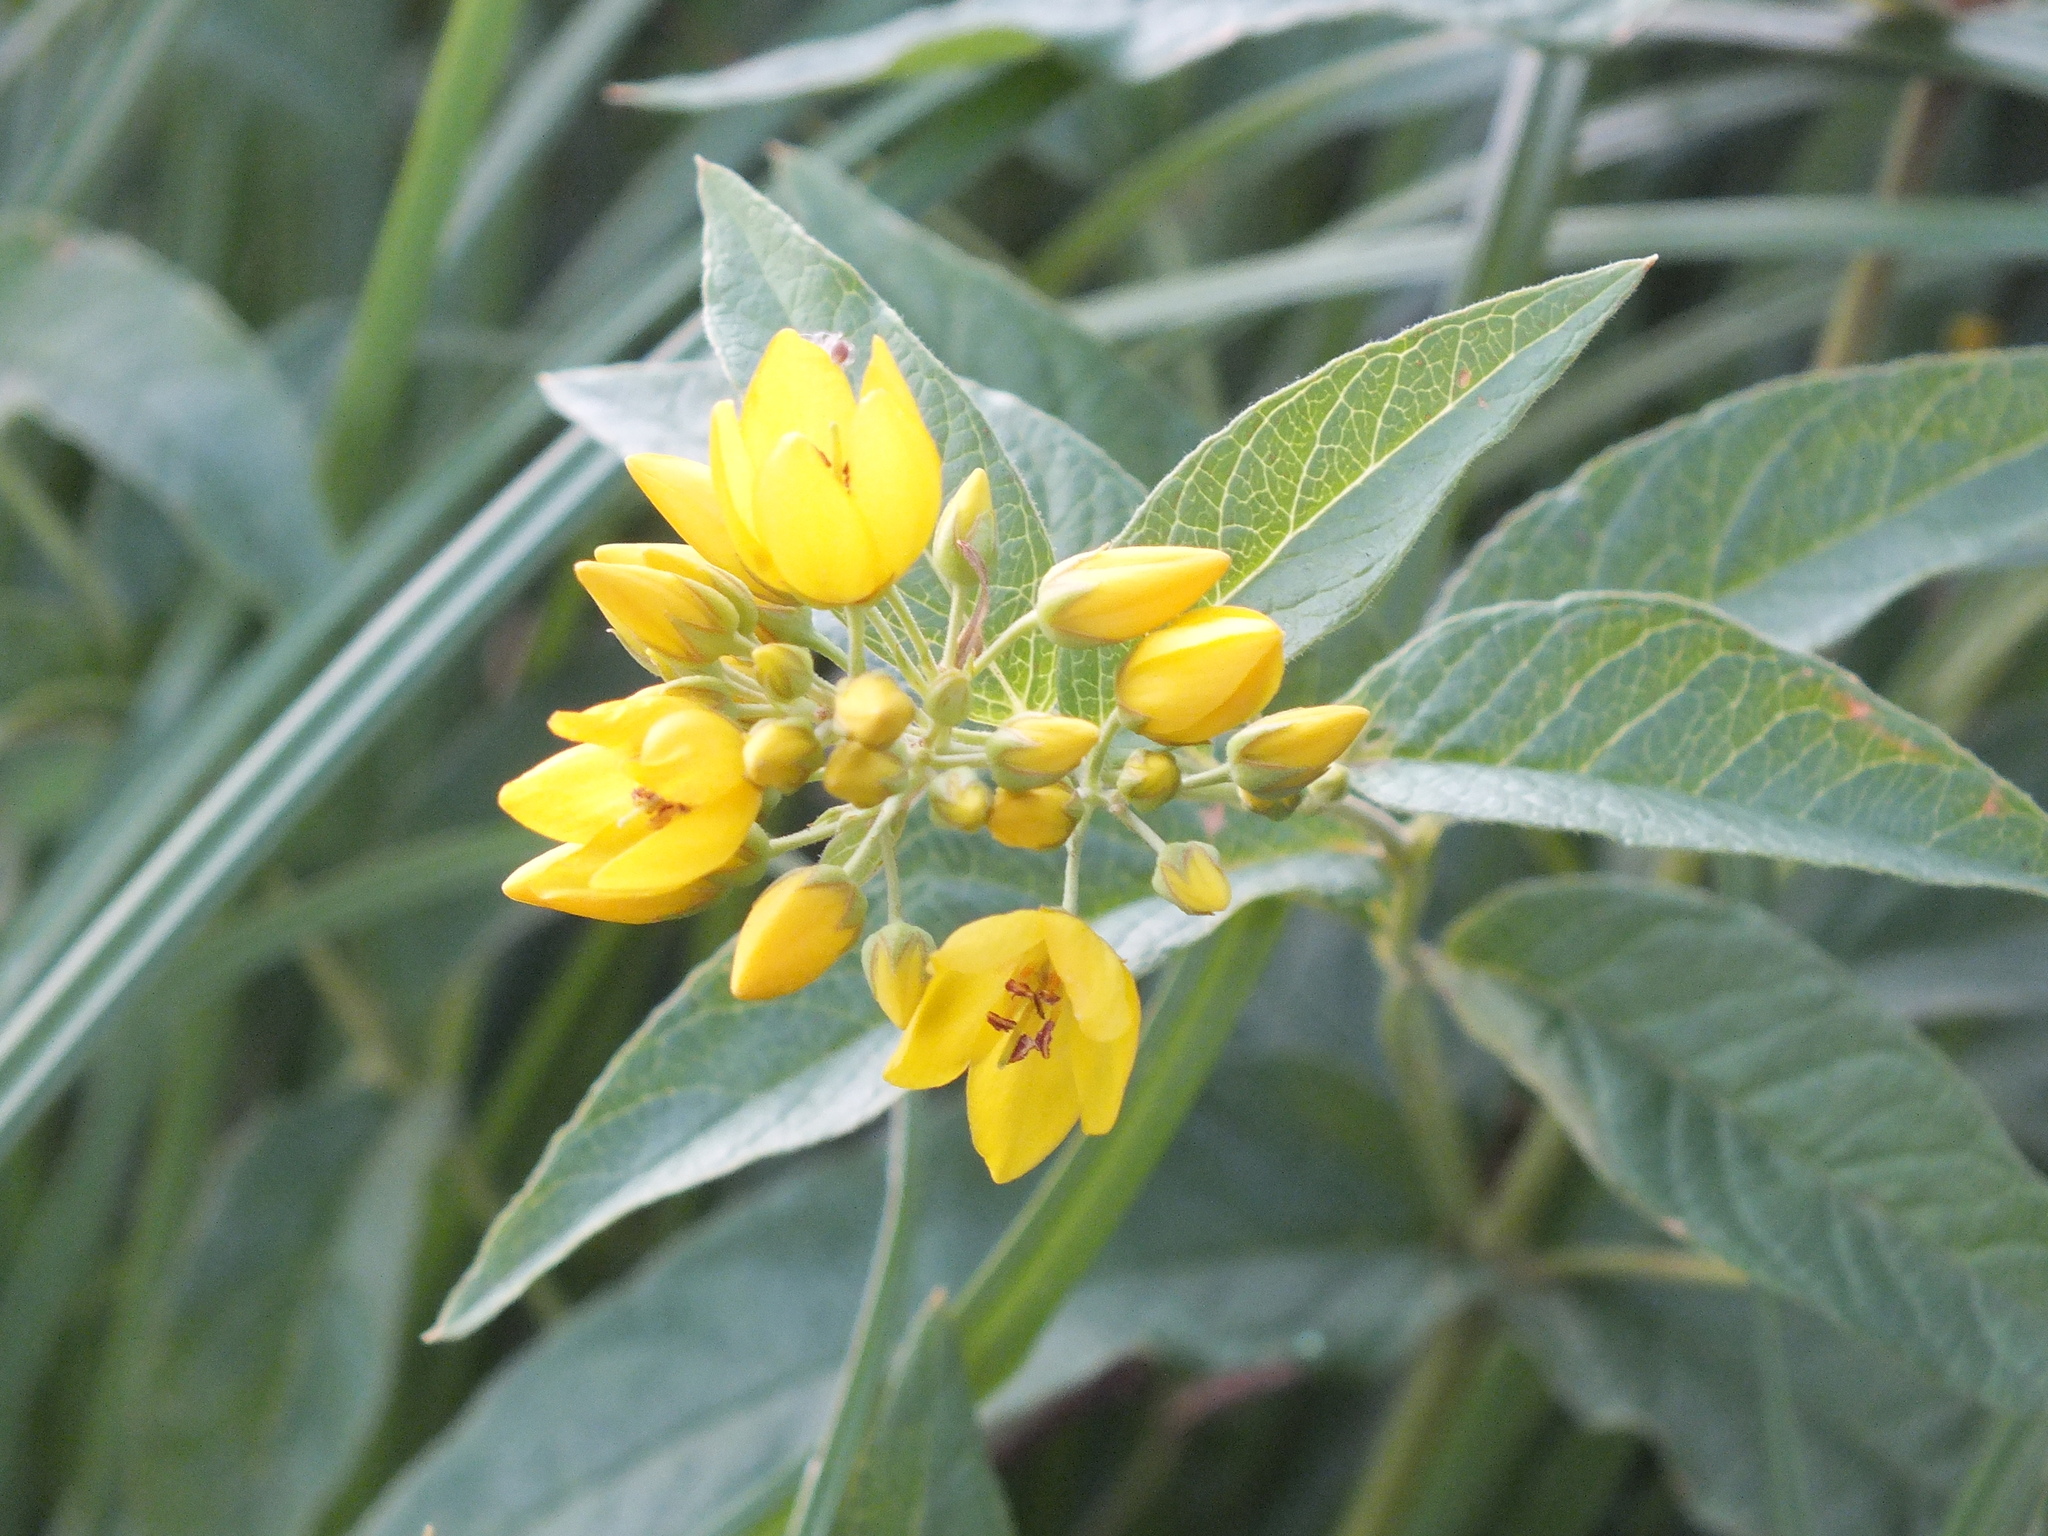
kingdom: Plantae
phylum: Tracheophyta
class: Magnoliopsida
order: Ericales
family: Primulaceae
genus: Lysimachia
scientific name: Lysimachia vulgaris
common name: Yellow loosestrife
